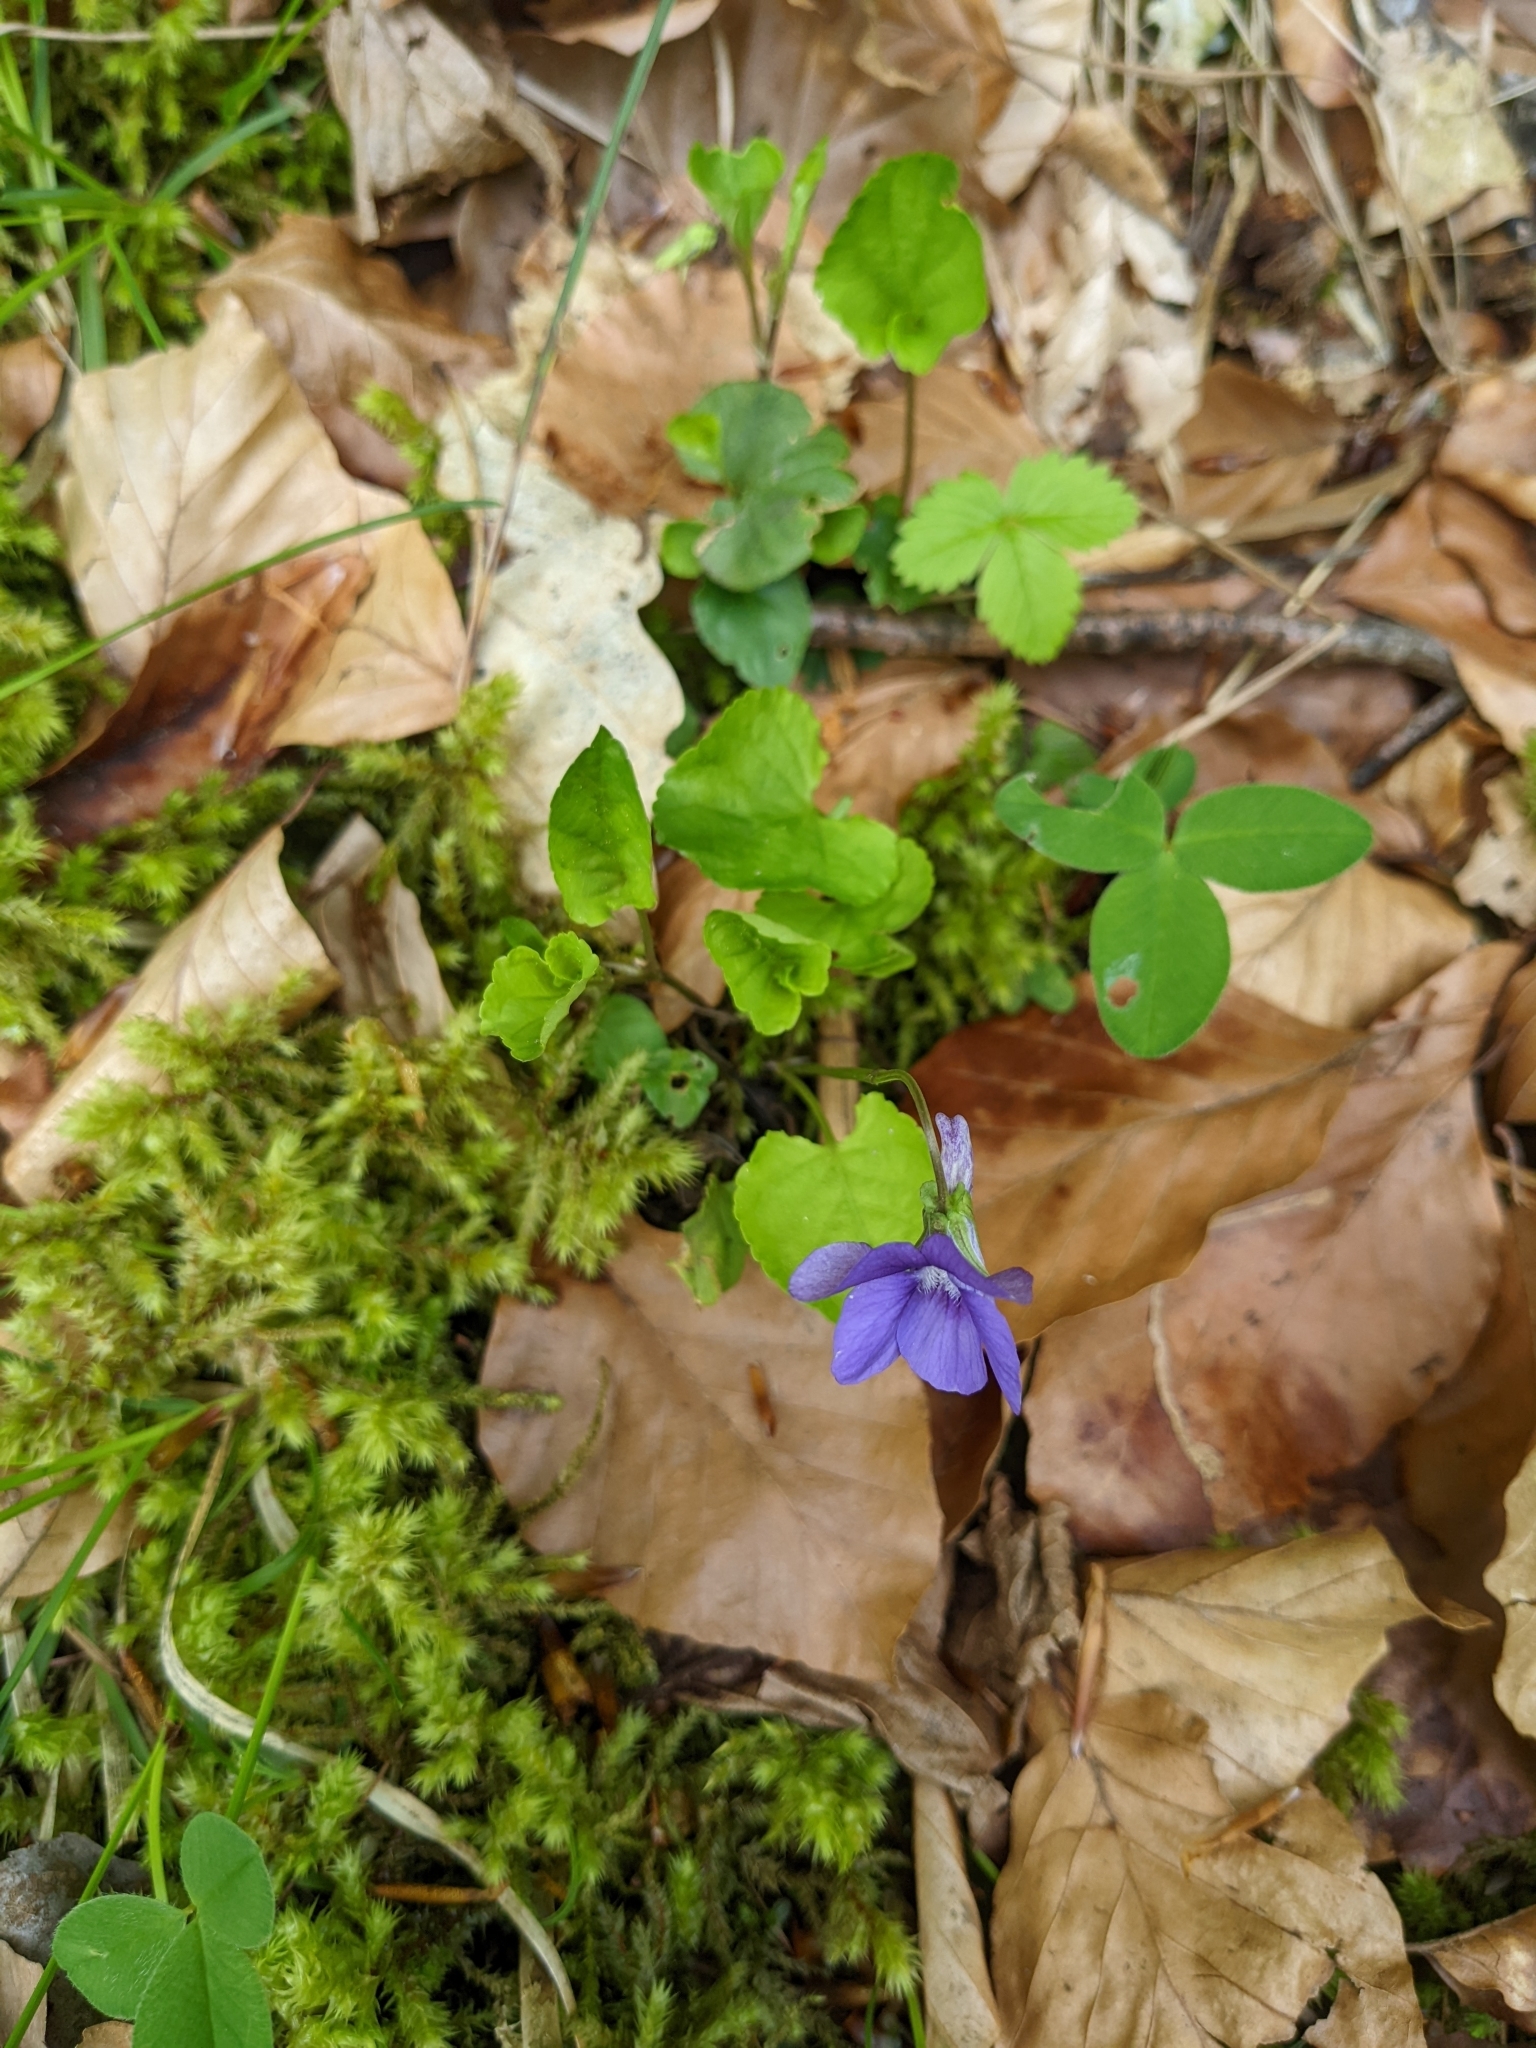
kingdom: Plantae
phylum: Tracheophyta
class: Magnoliopsida
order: Malpighiales
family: Violaceae
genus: Viola
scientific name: Viola reichenbachiana
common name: Early dog-violet
